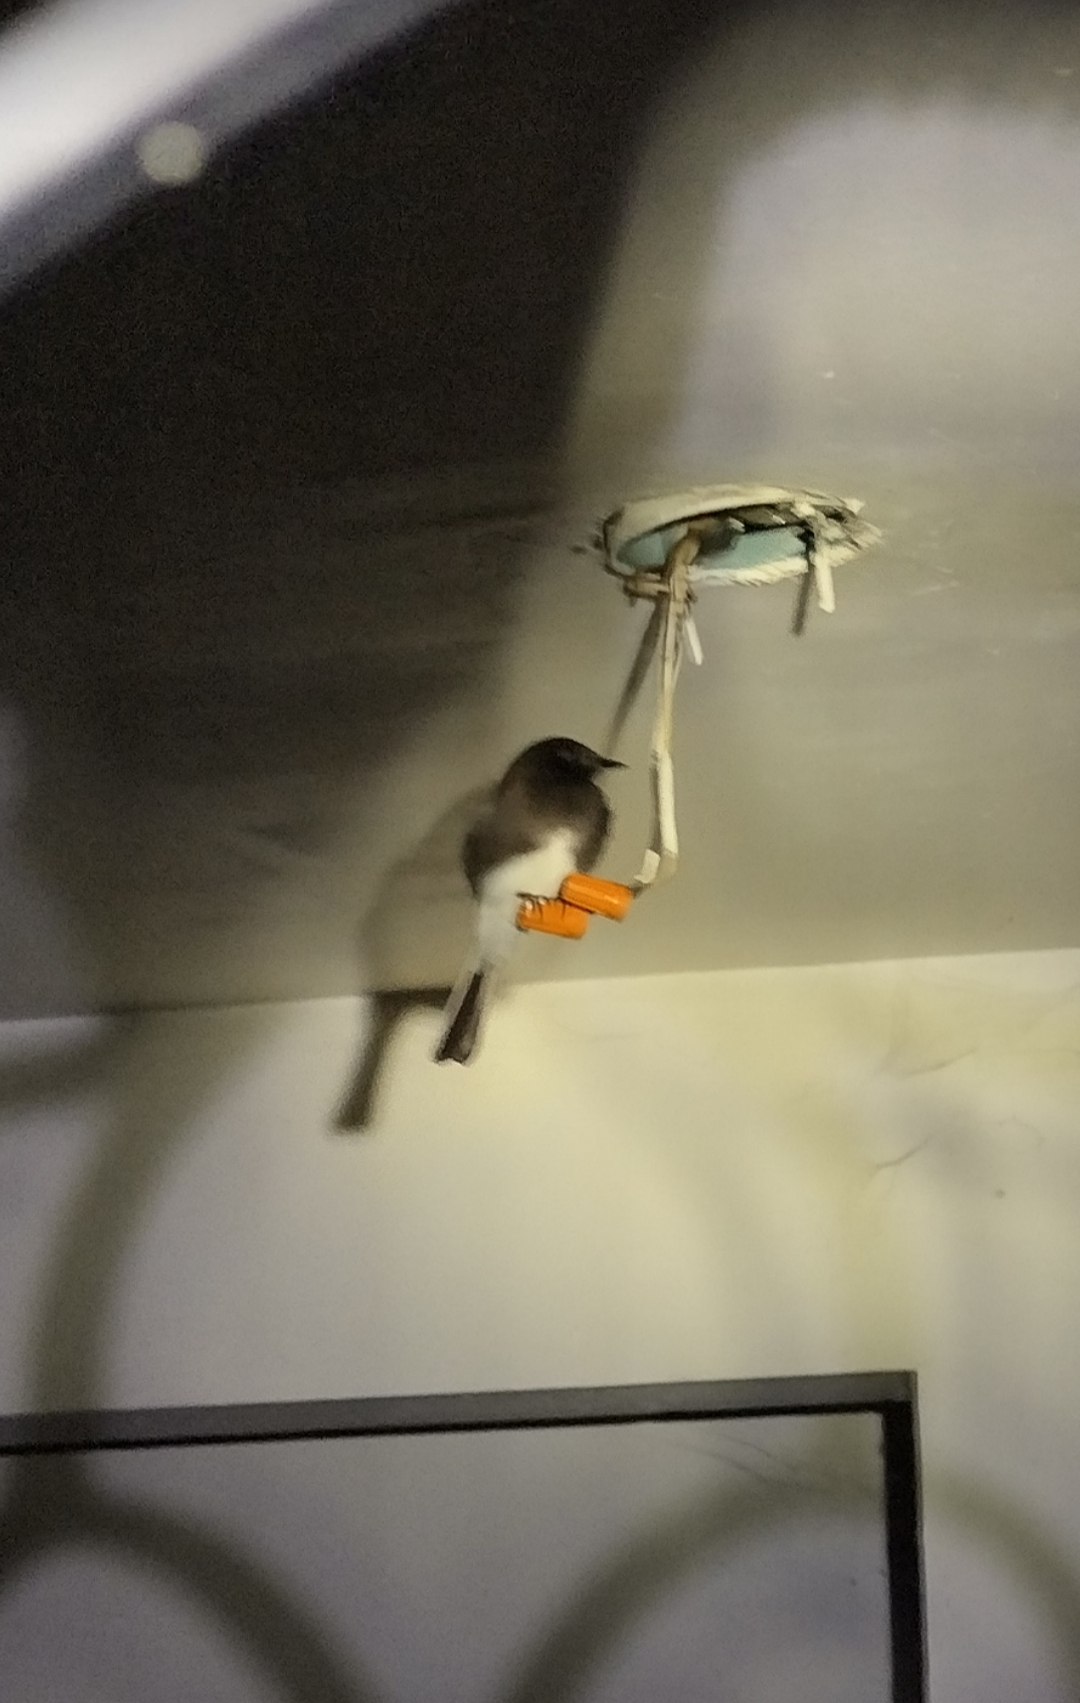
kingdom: Animalia
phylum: Chordata
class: Aves
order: Passeriformes
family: Tyrannidae
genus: Sayornis
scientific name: Sayornis nigricans
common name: Black phoebe
